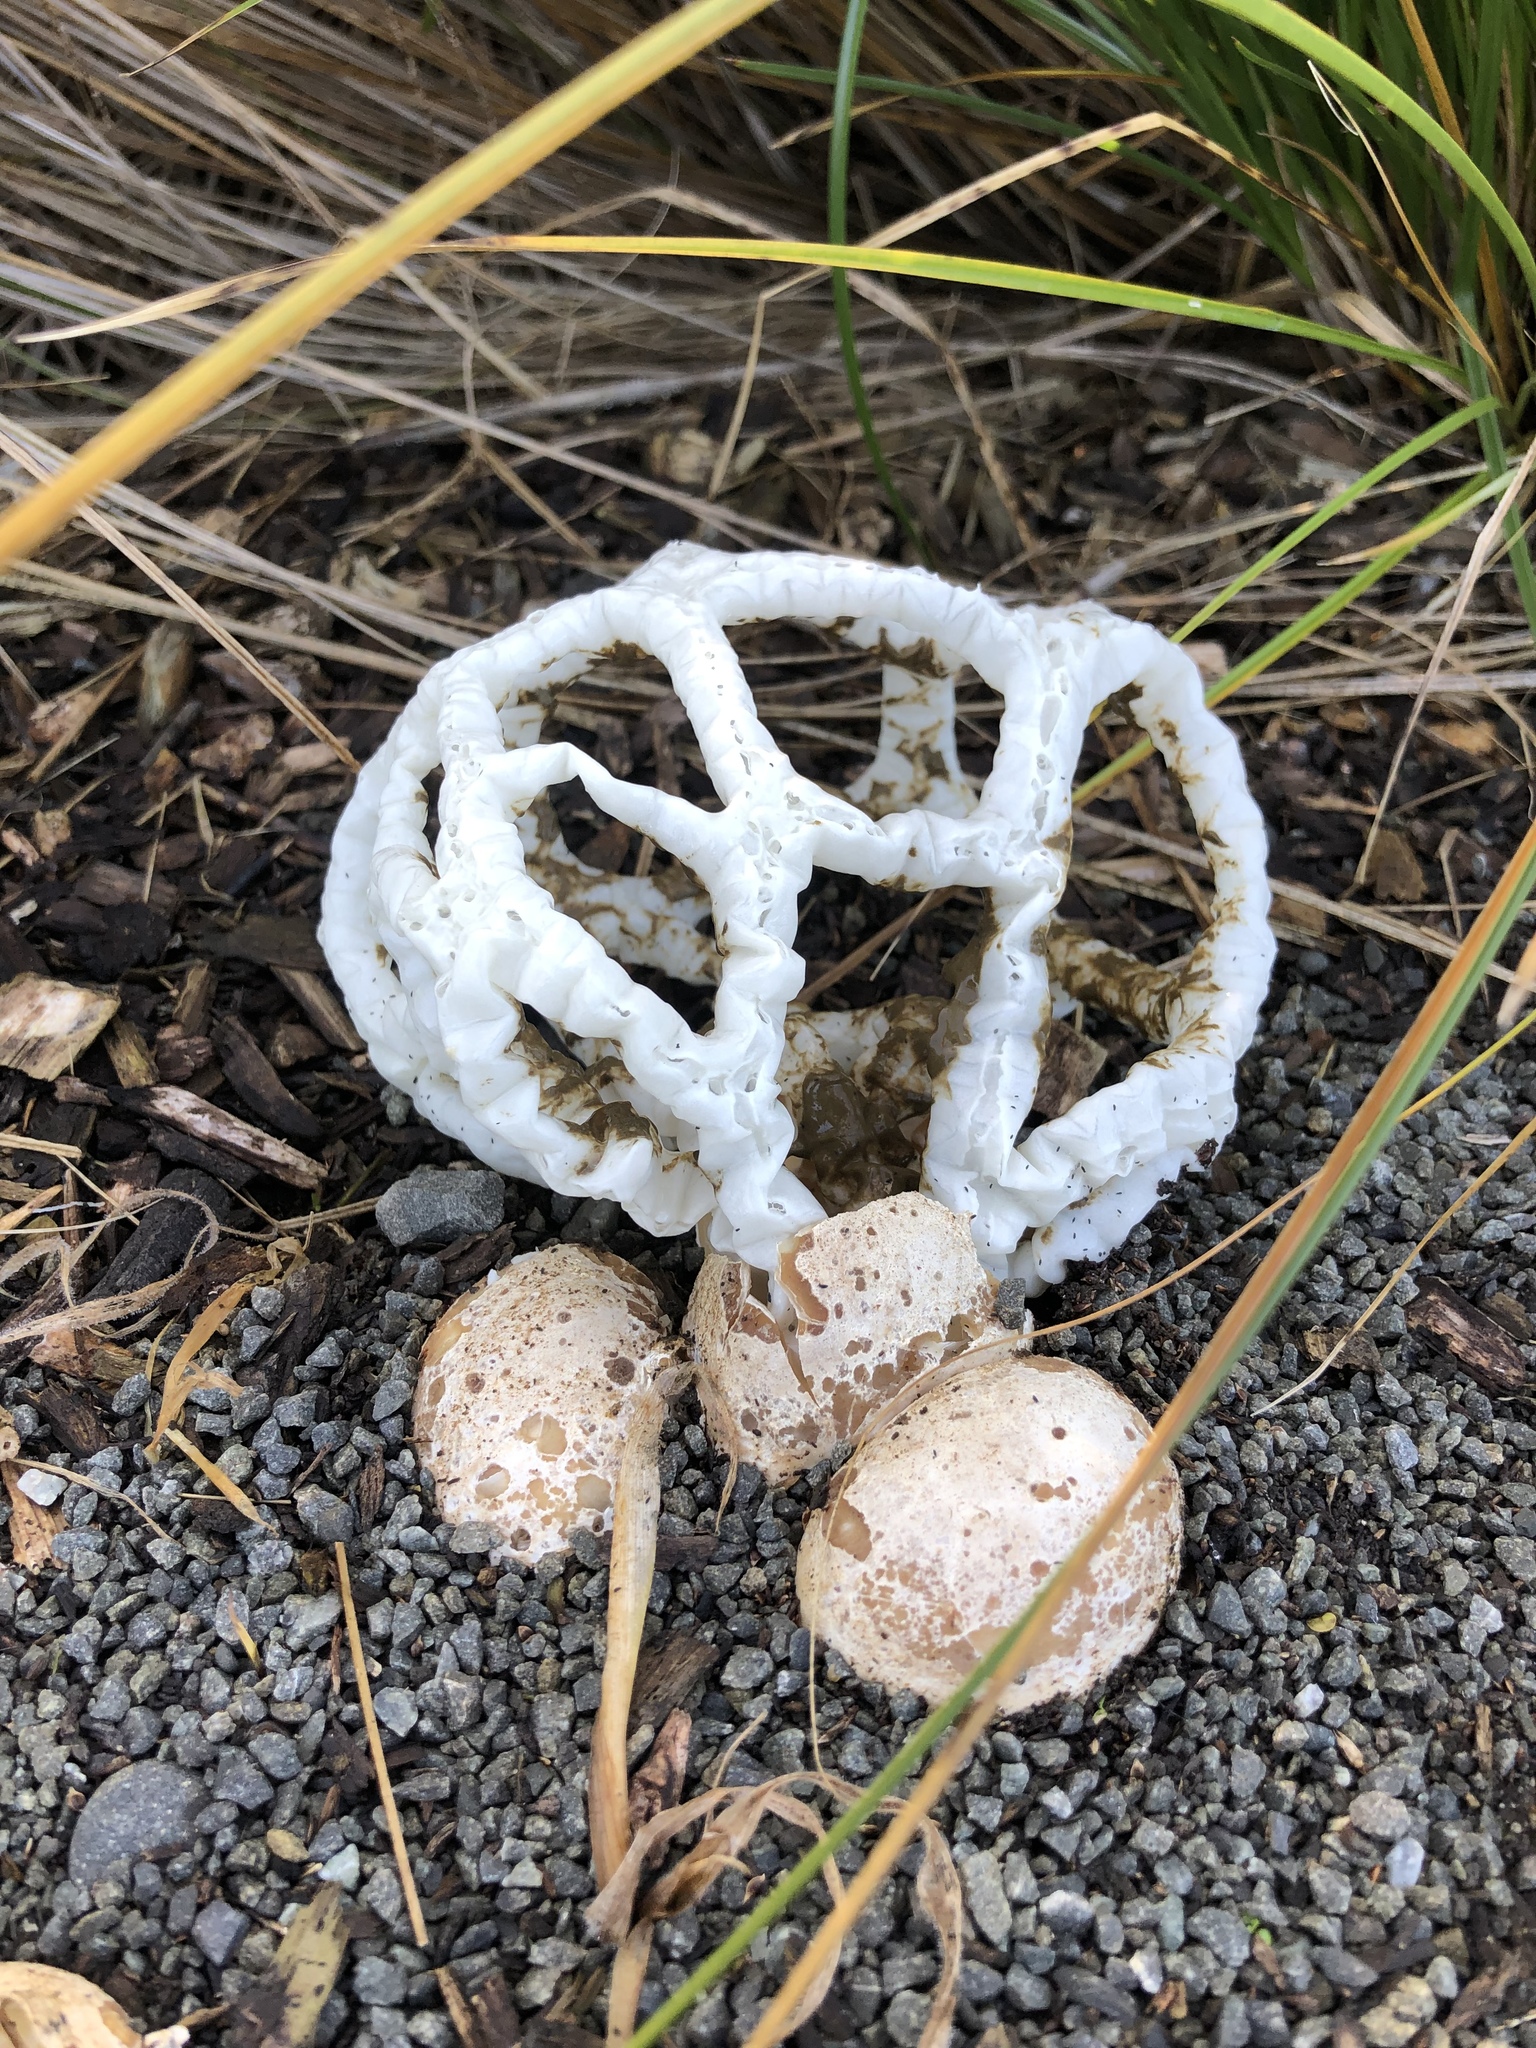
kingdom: Fungi
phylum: Basidiomycota
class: Agaricomycetes
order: Phallales
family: Phallaceae
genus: Ileodictyon
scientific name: Ileodictyon cibarium
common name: Basket fungus
